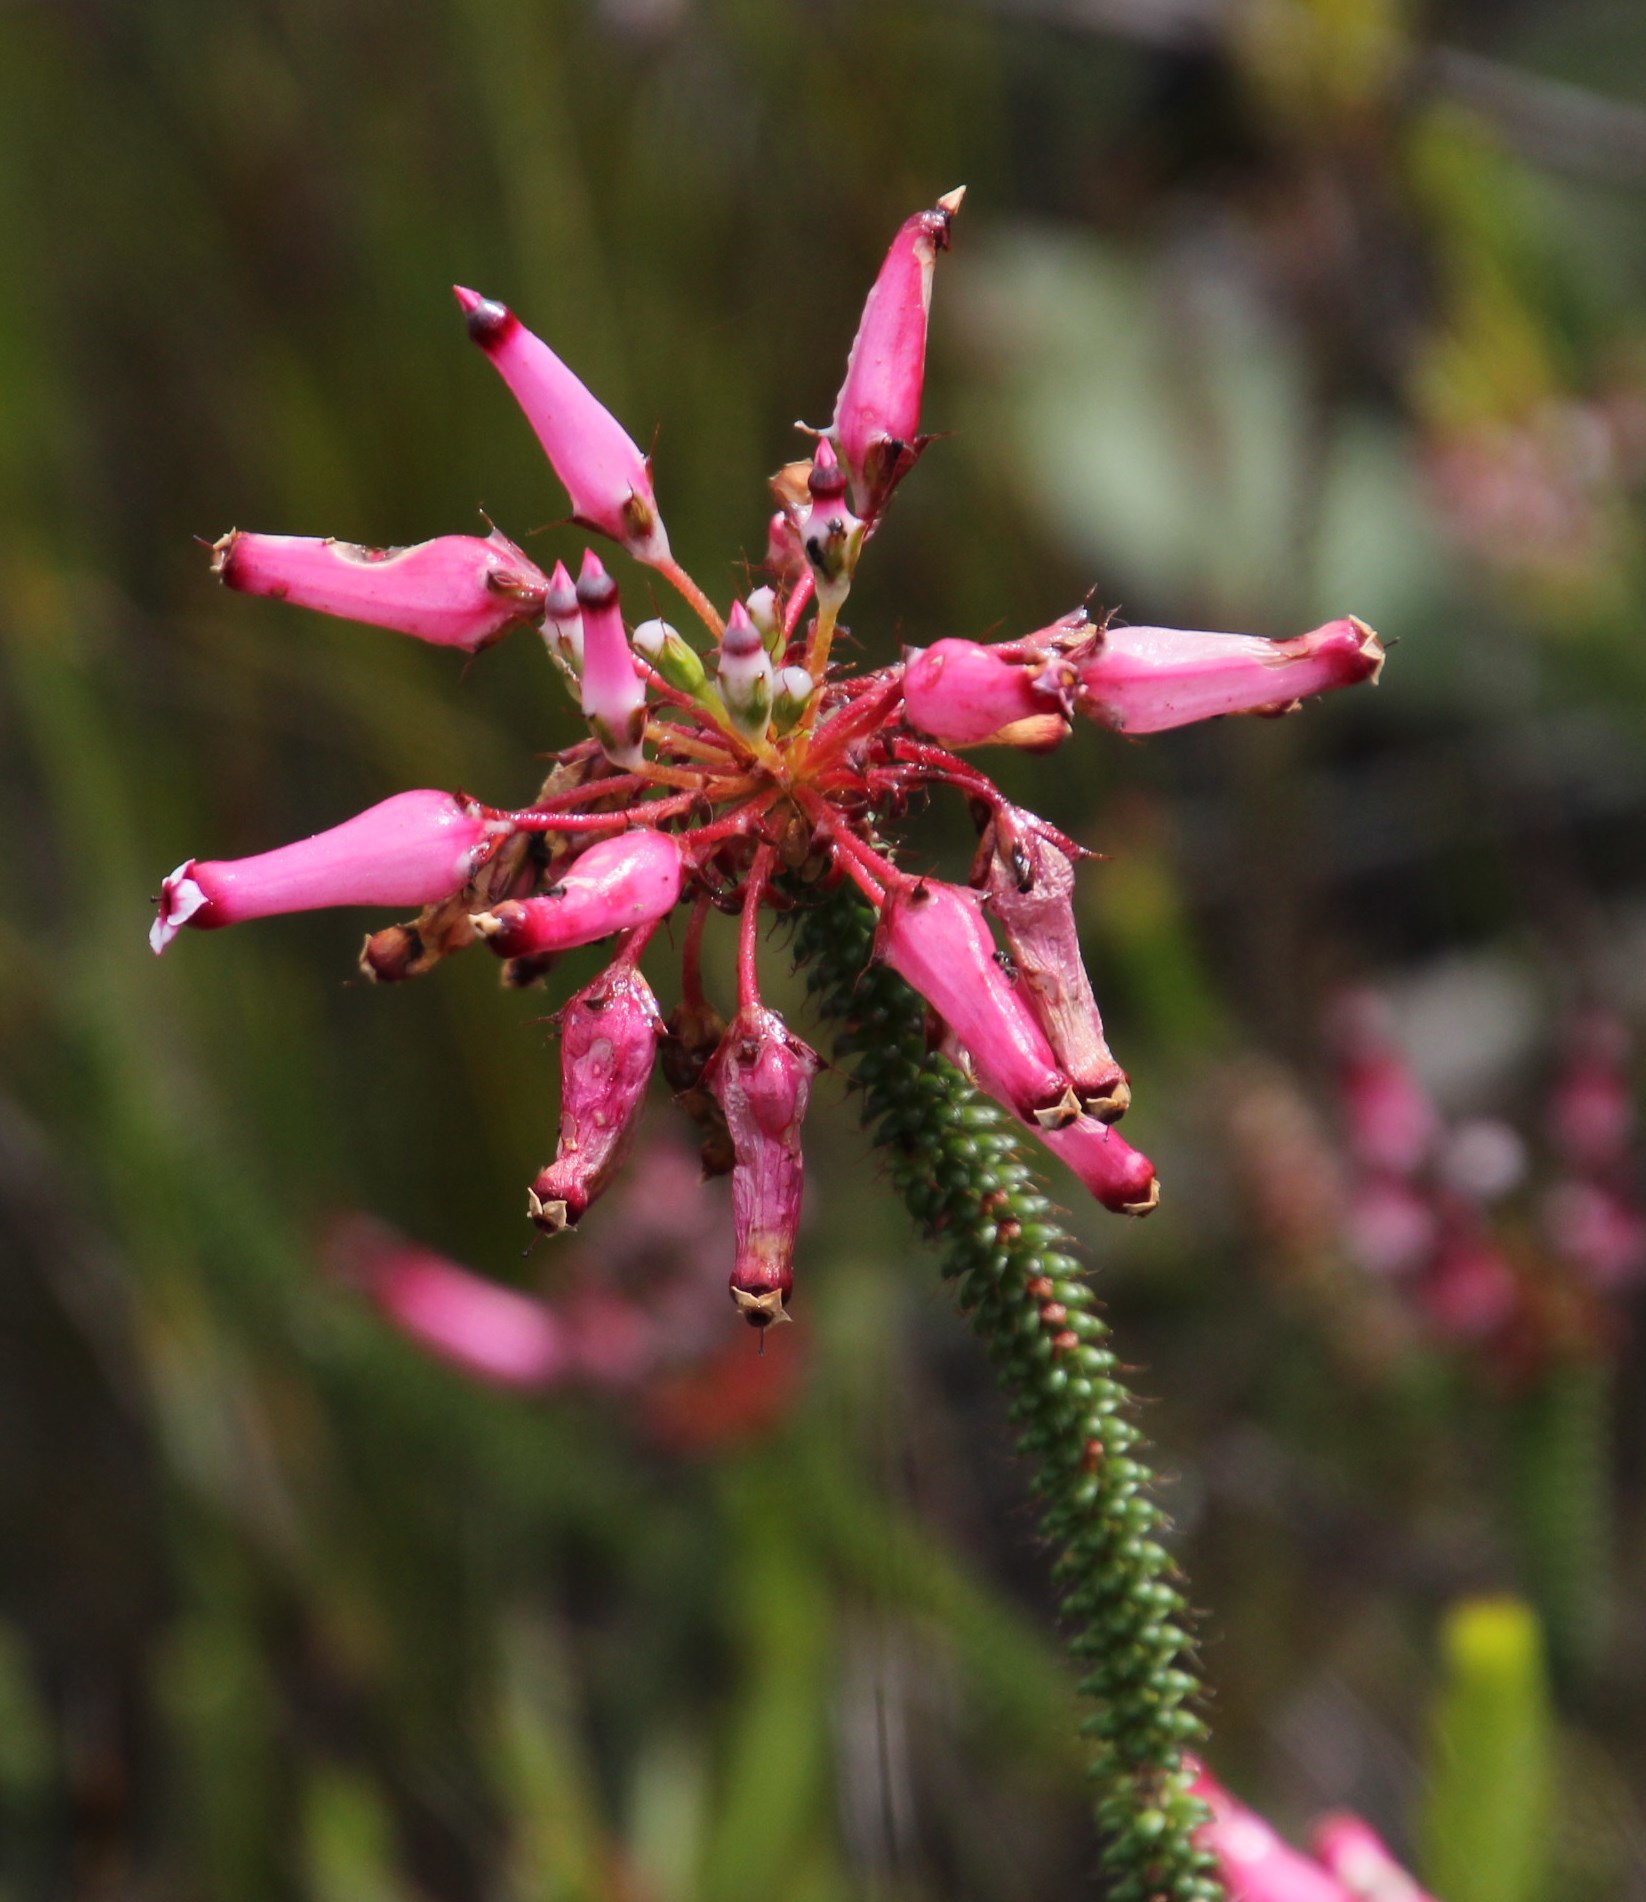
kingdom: Plantae
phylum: Tracheophyta
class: Magnoliopsida
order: Ericales
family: Ericaceae
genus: Erica
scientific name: Erica retorta
